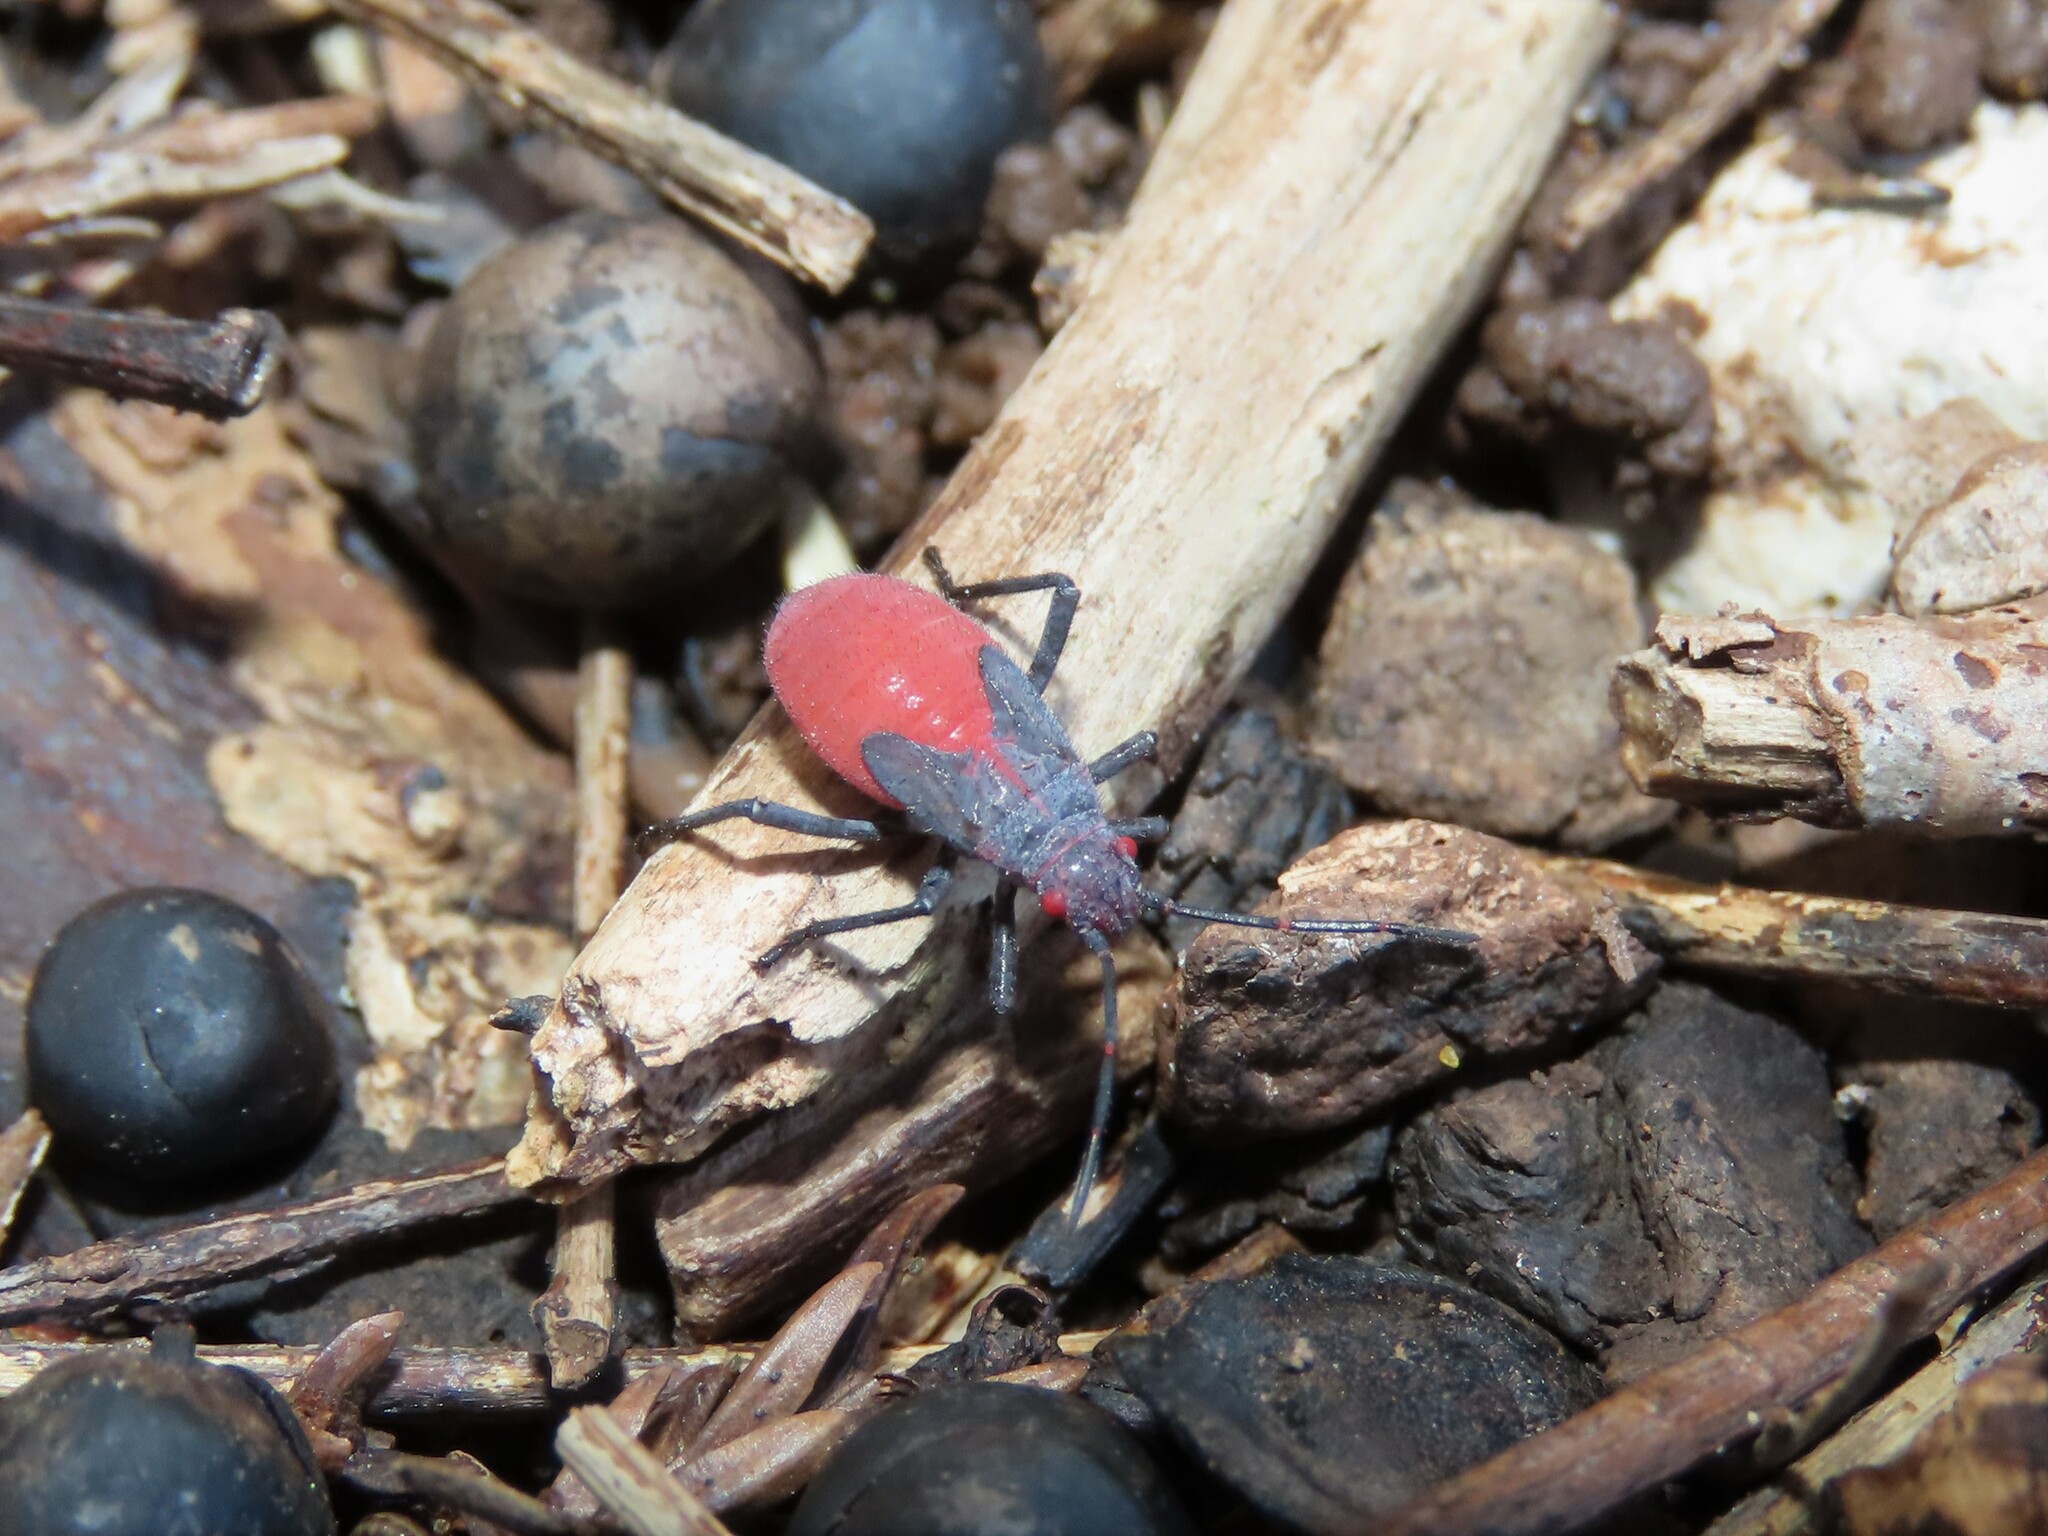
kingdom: Animalia
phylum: Arthropoda
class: Insecta
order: Hemiptera
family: Rhopalidae
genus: Jadera
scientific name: Jadera haematoloma
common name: Red-shouldered bug
